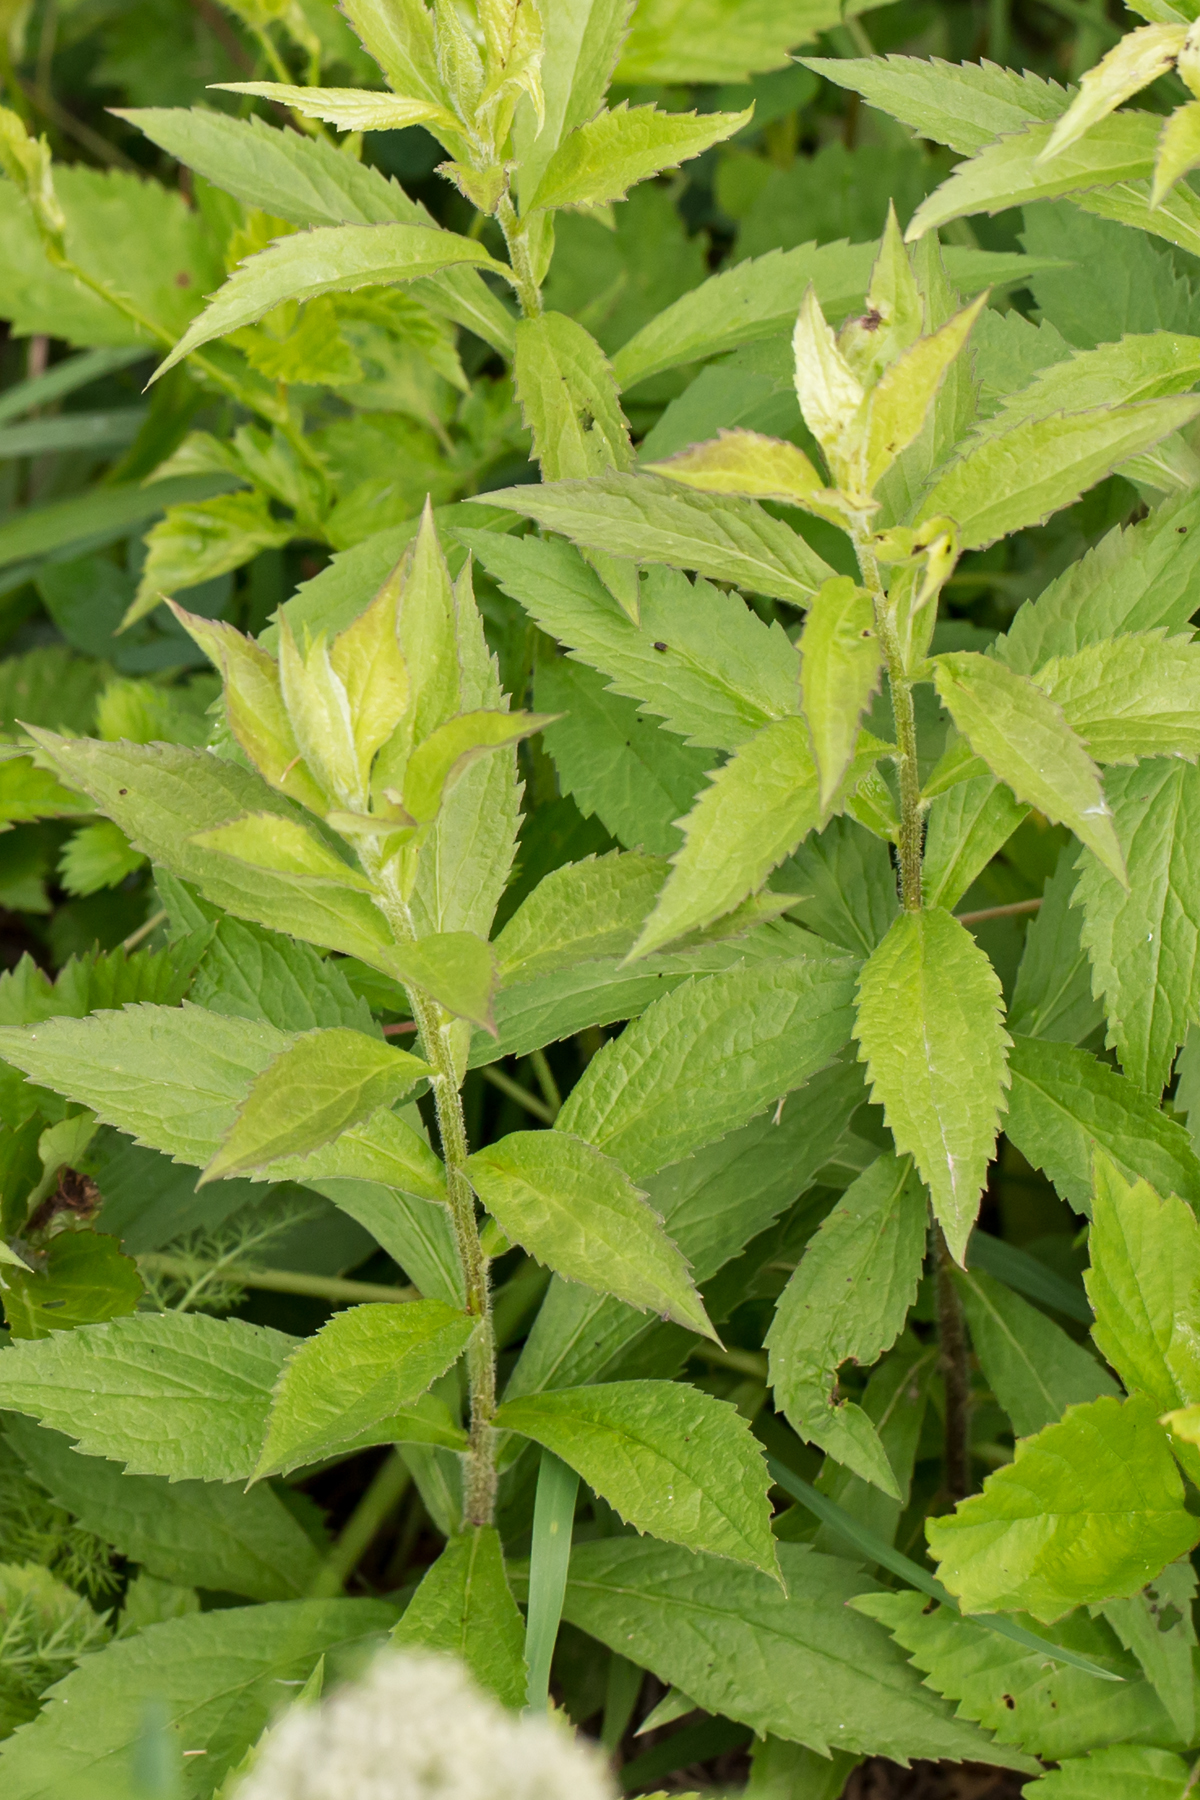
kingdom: Plantae
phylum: Tracheophyta
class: Magnoliopsida
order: Asterales
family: Asteraceae
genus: Solidago
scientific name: Solidago rugosa
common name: Rough-stemmed goldenrod
